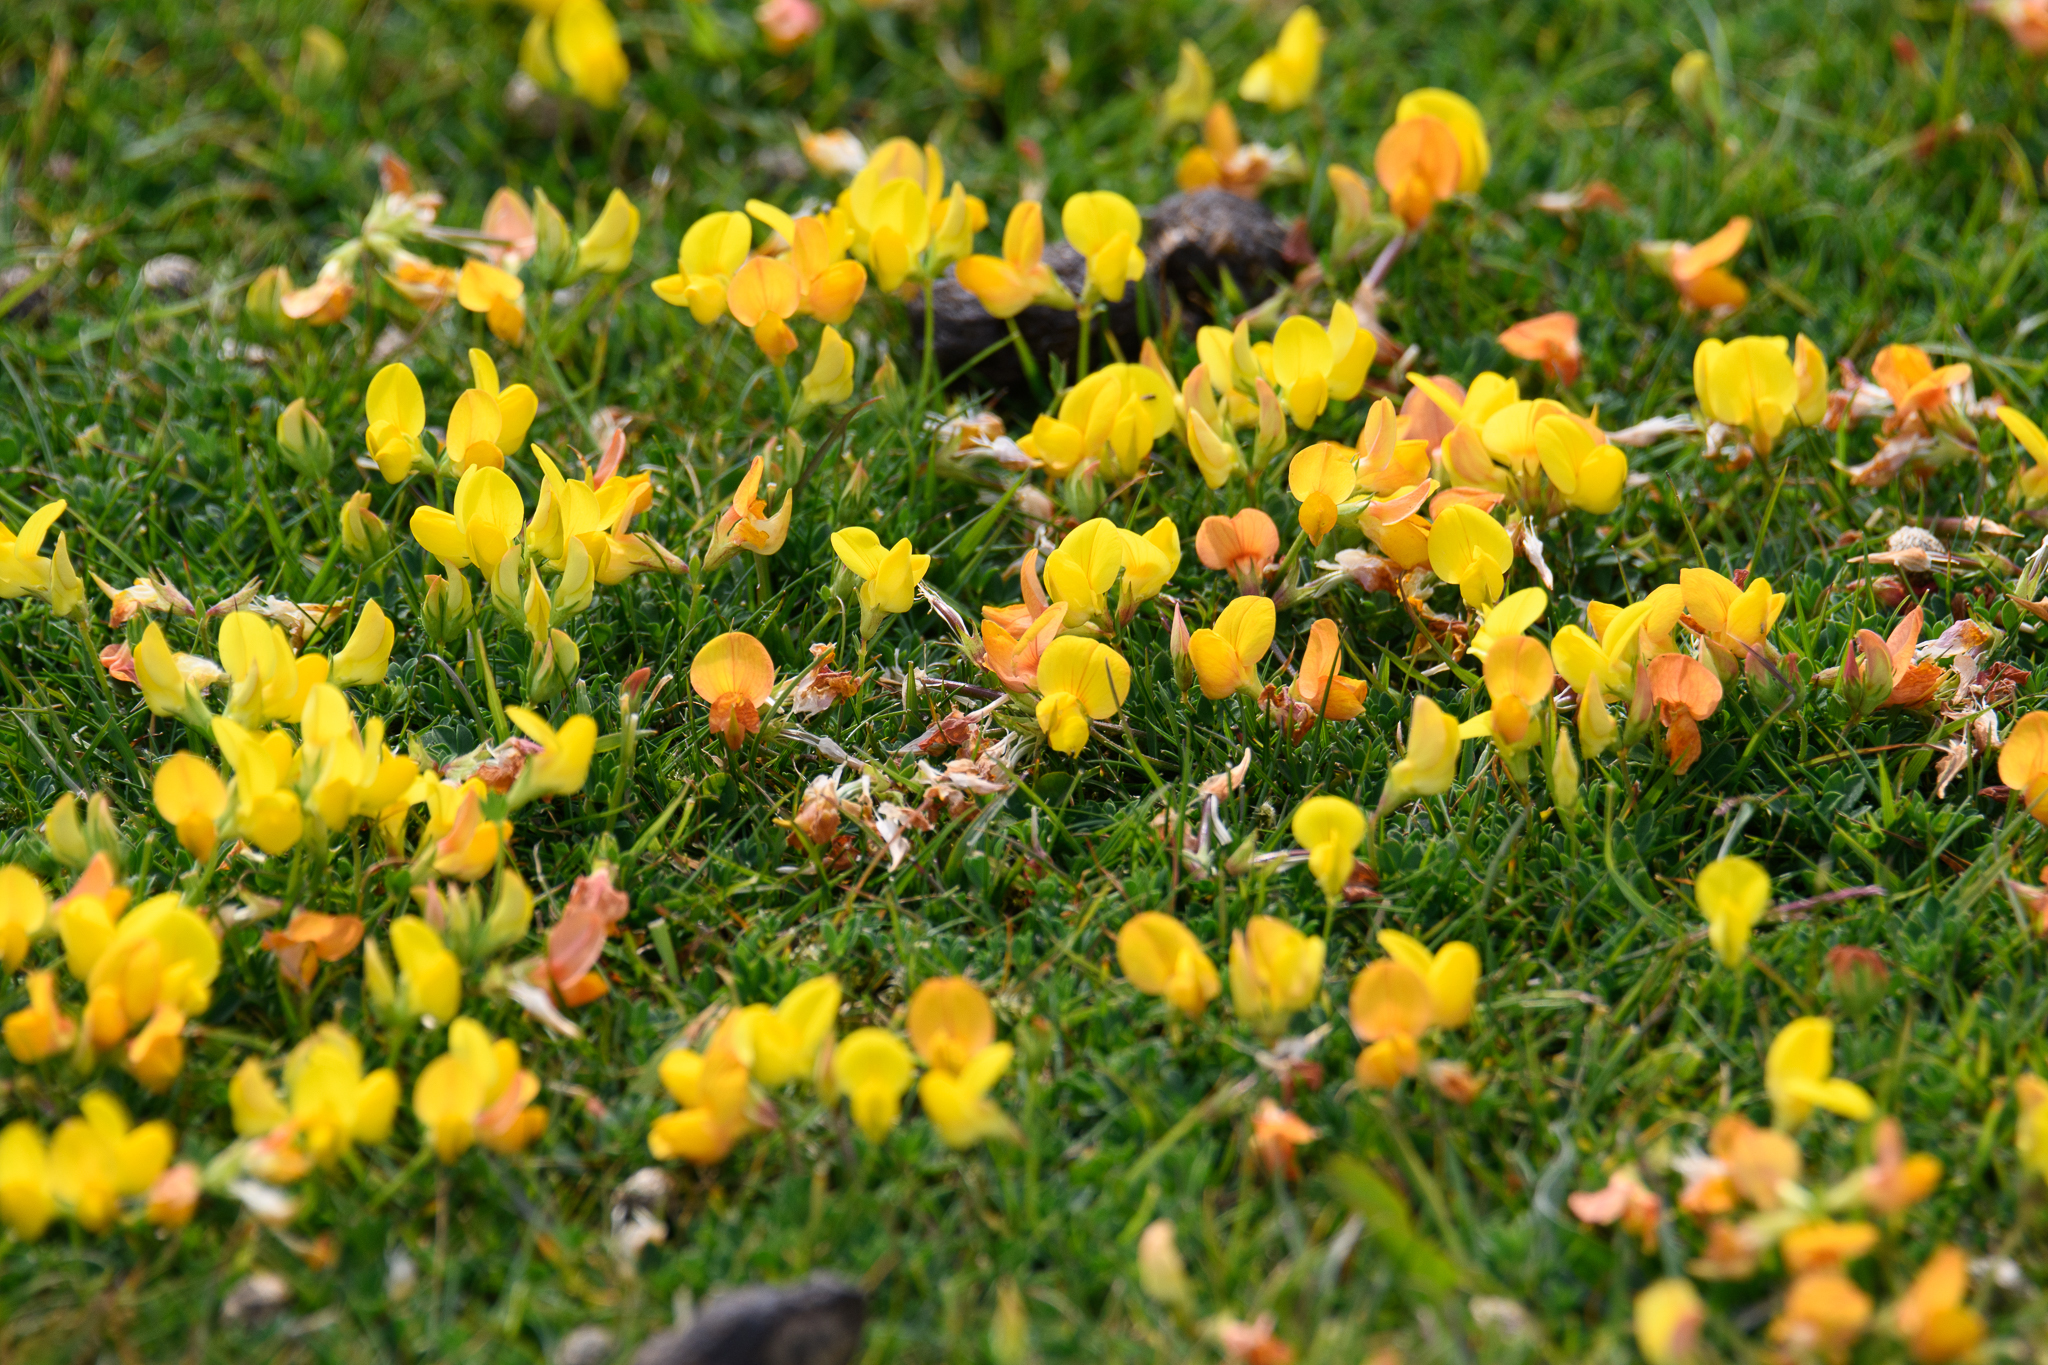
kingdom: Plantae
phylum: Tracheophyta
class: Magnoliopsida
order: Fabales
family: Fabaceae
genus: Lotus
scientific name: Lotus corniculatus
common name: Common bird's-foot-trefoil
